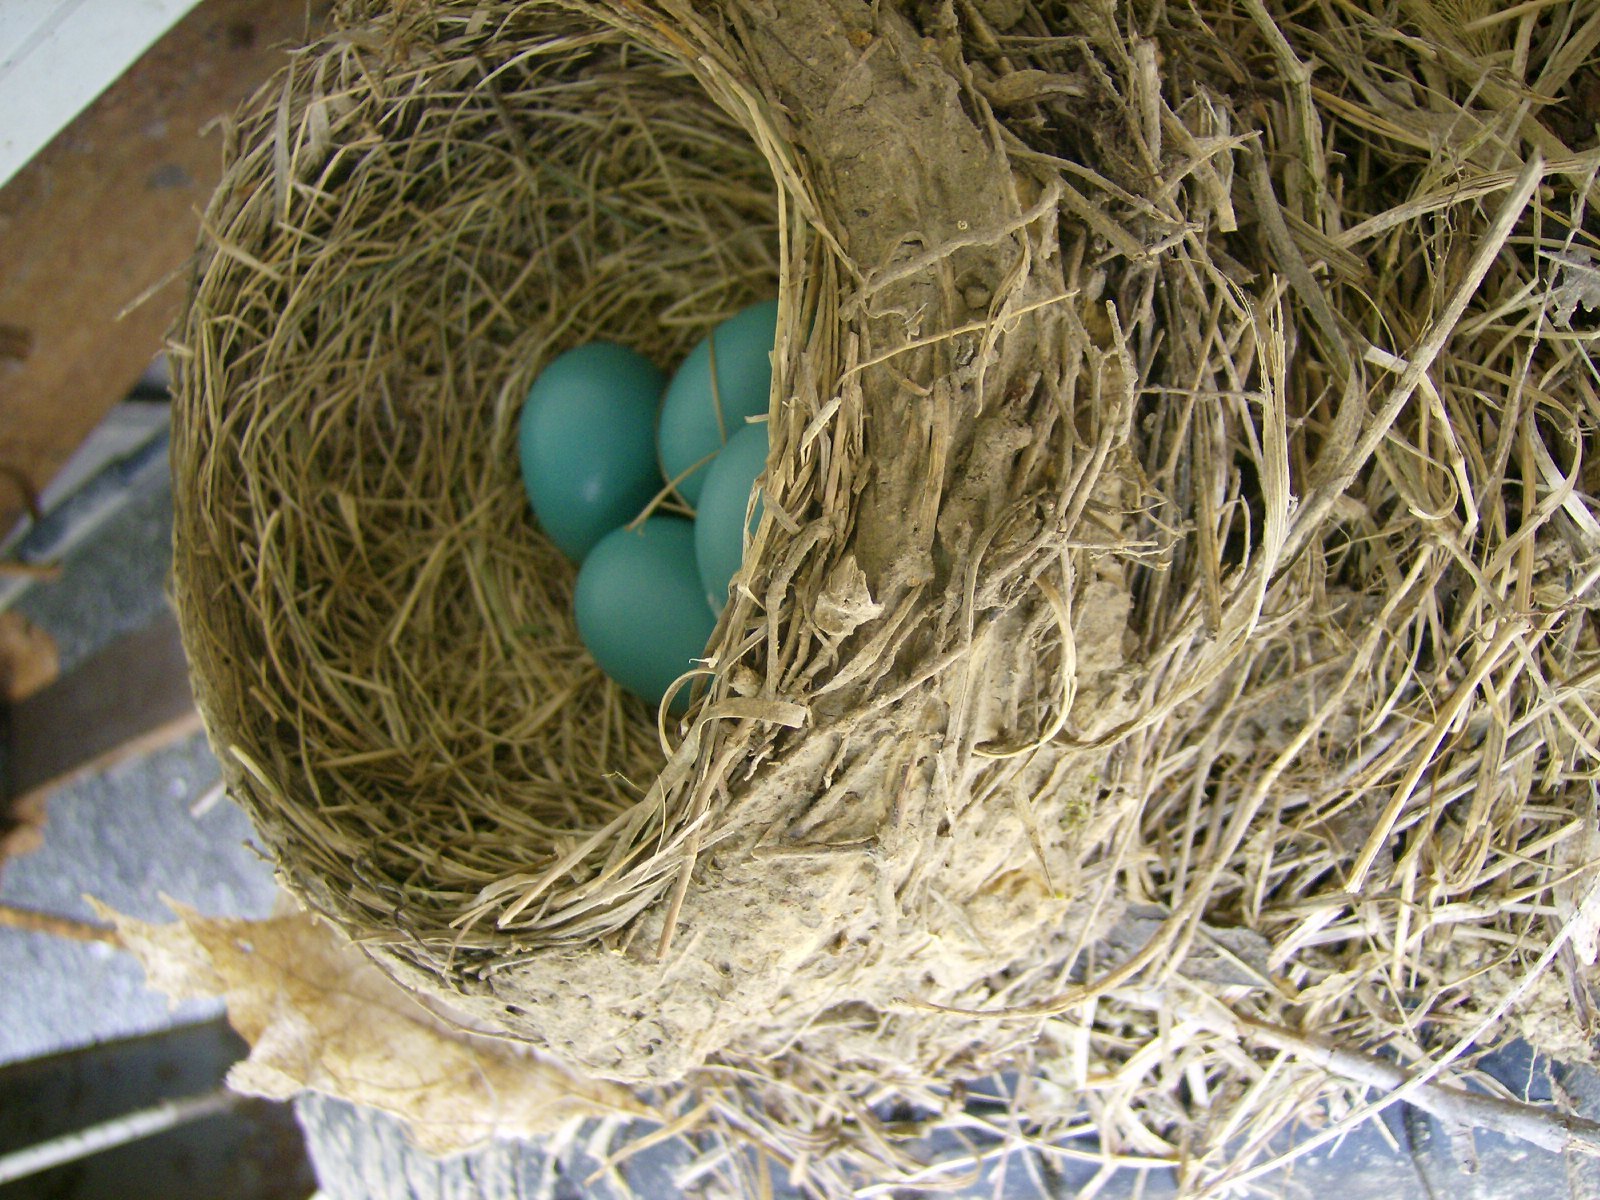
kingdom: Animalia
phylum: Chordata
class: Aves
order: Passeriformes
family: Turdidae
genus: Turdus
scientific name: Turdus migratorius
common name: American robin
